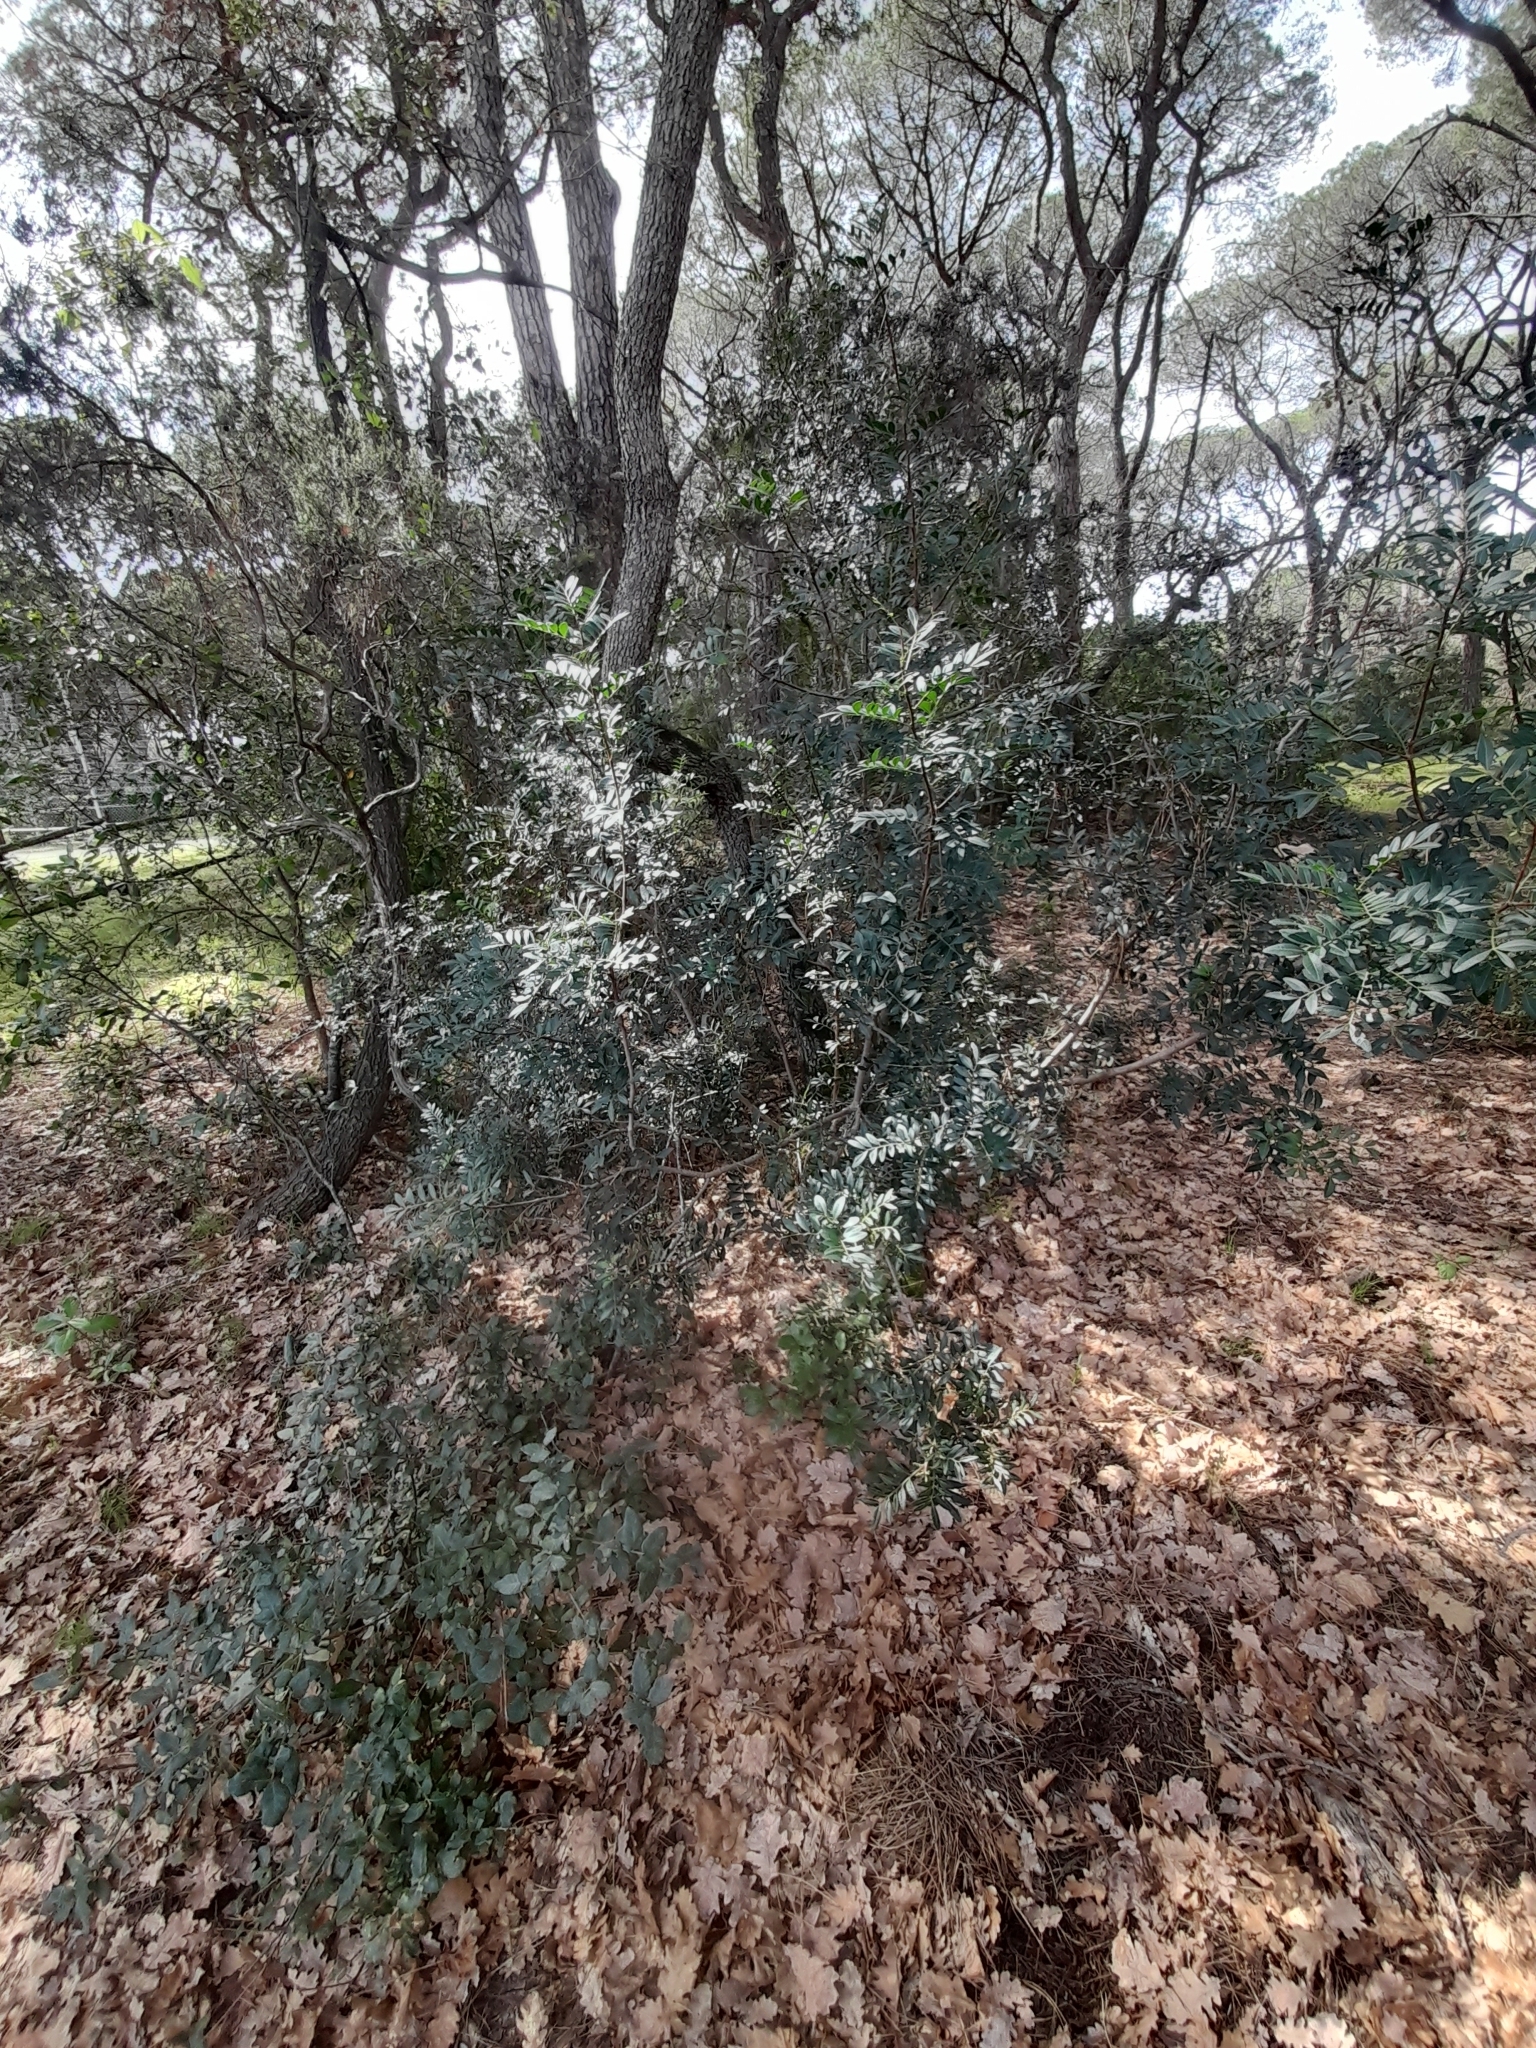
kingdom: Plantae
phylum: Tracheophyta
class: Magnoliopsida
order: Sapindales
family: Anacardiaceae
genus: Pistacia
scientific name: Pistacia lentiscus
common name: Lentisk
